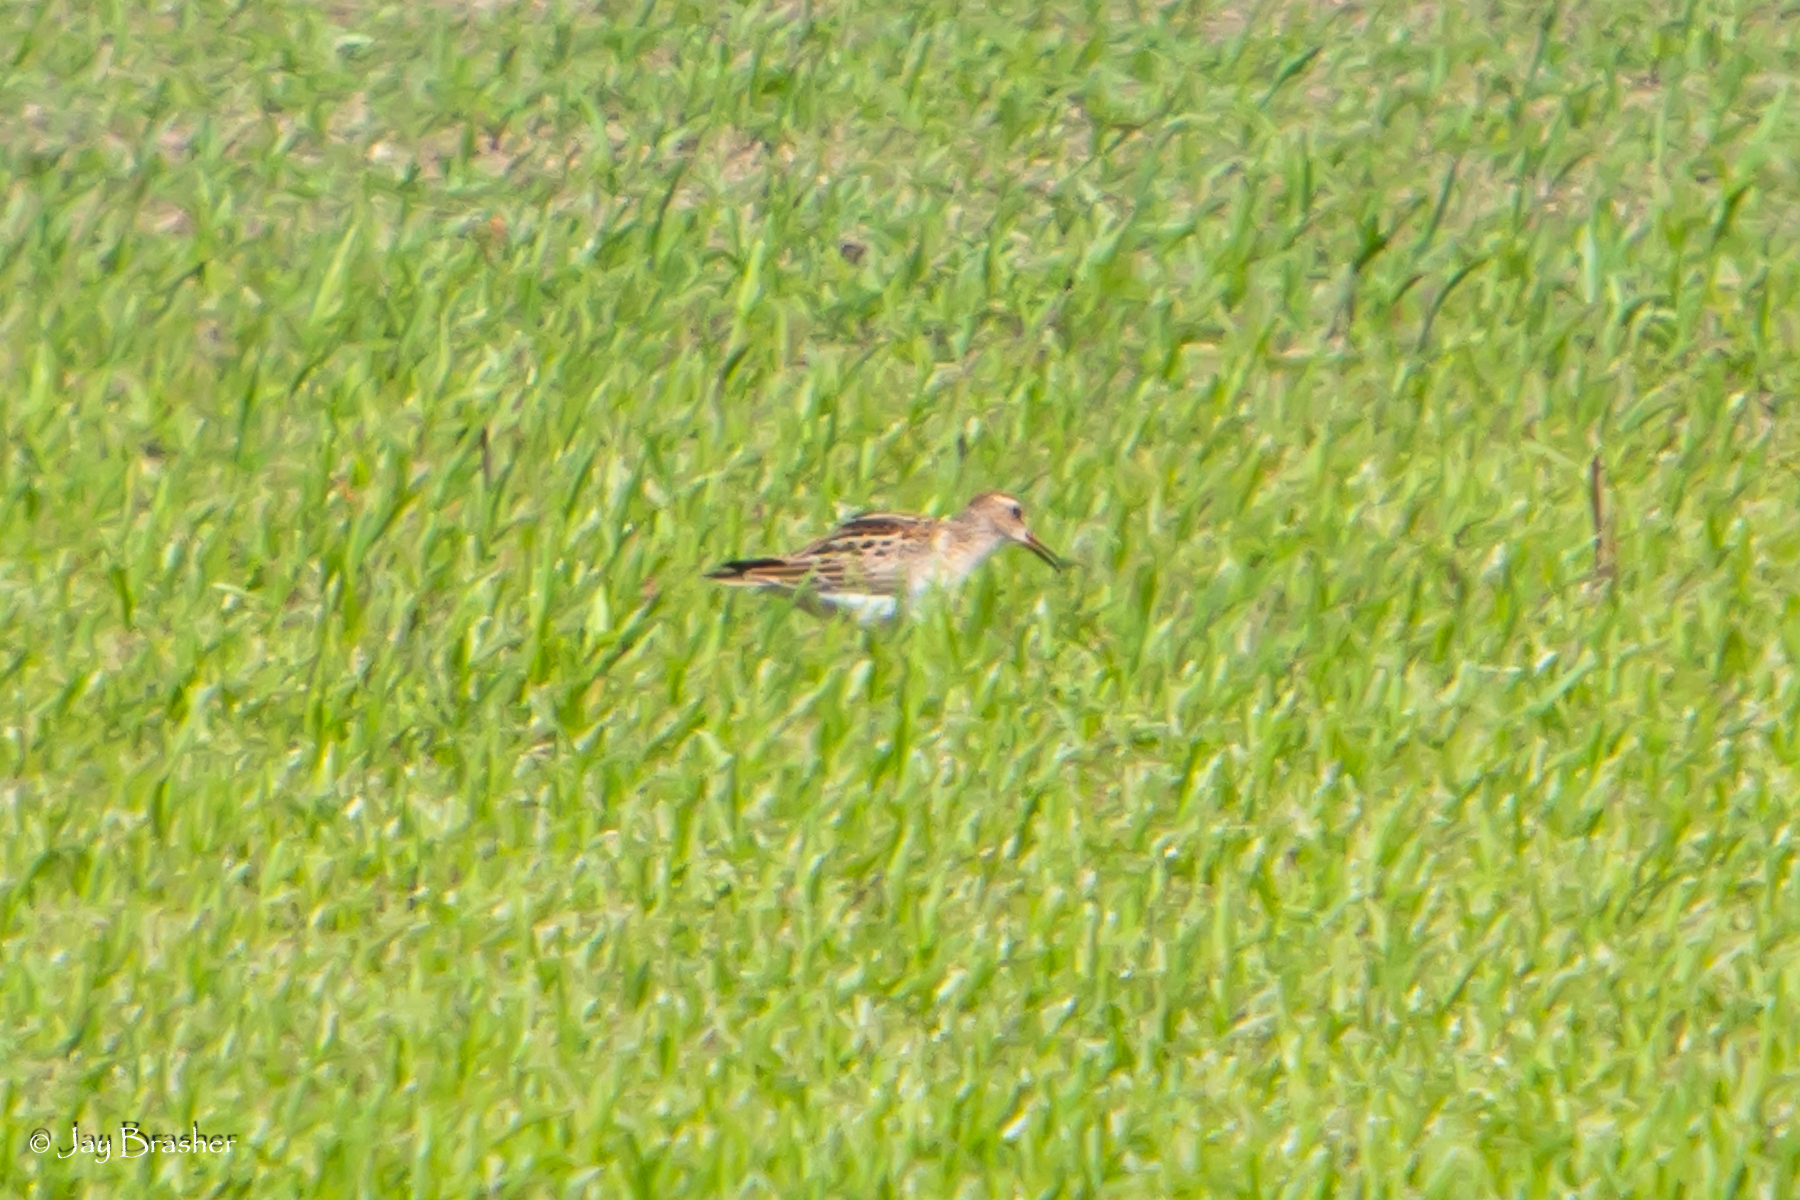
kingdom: Animalia
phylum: Chordata
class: Aves
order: Charadriiformes
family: Scolopacidae
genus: Calidris
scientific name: Calidris melanotos
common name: Pectoral sandpiper
